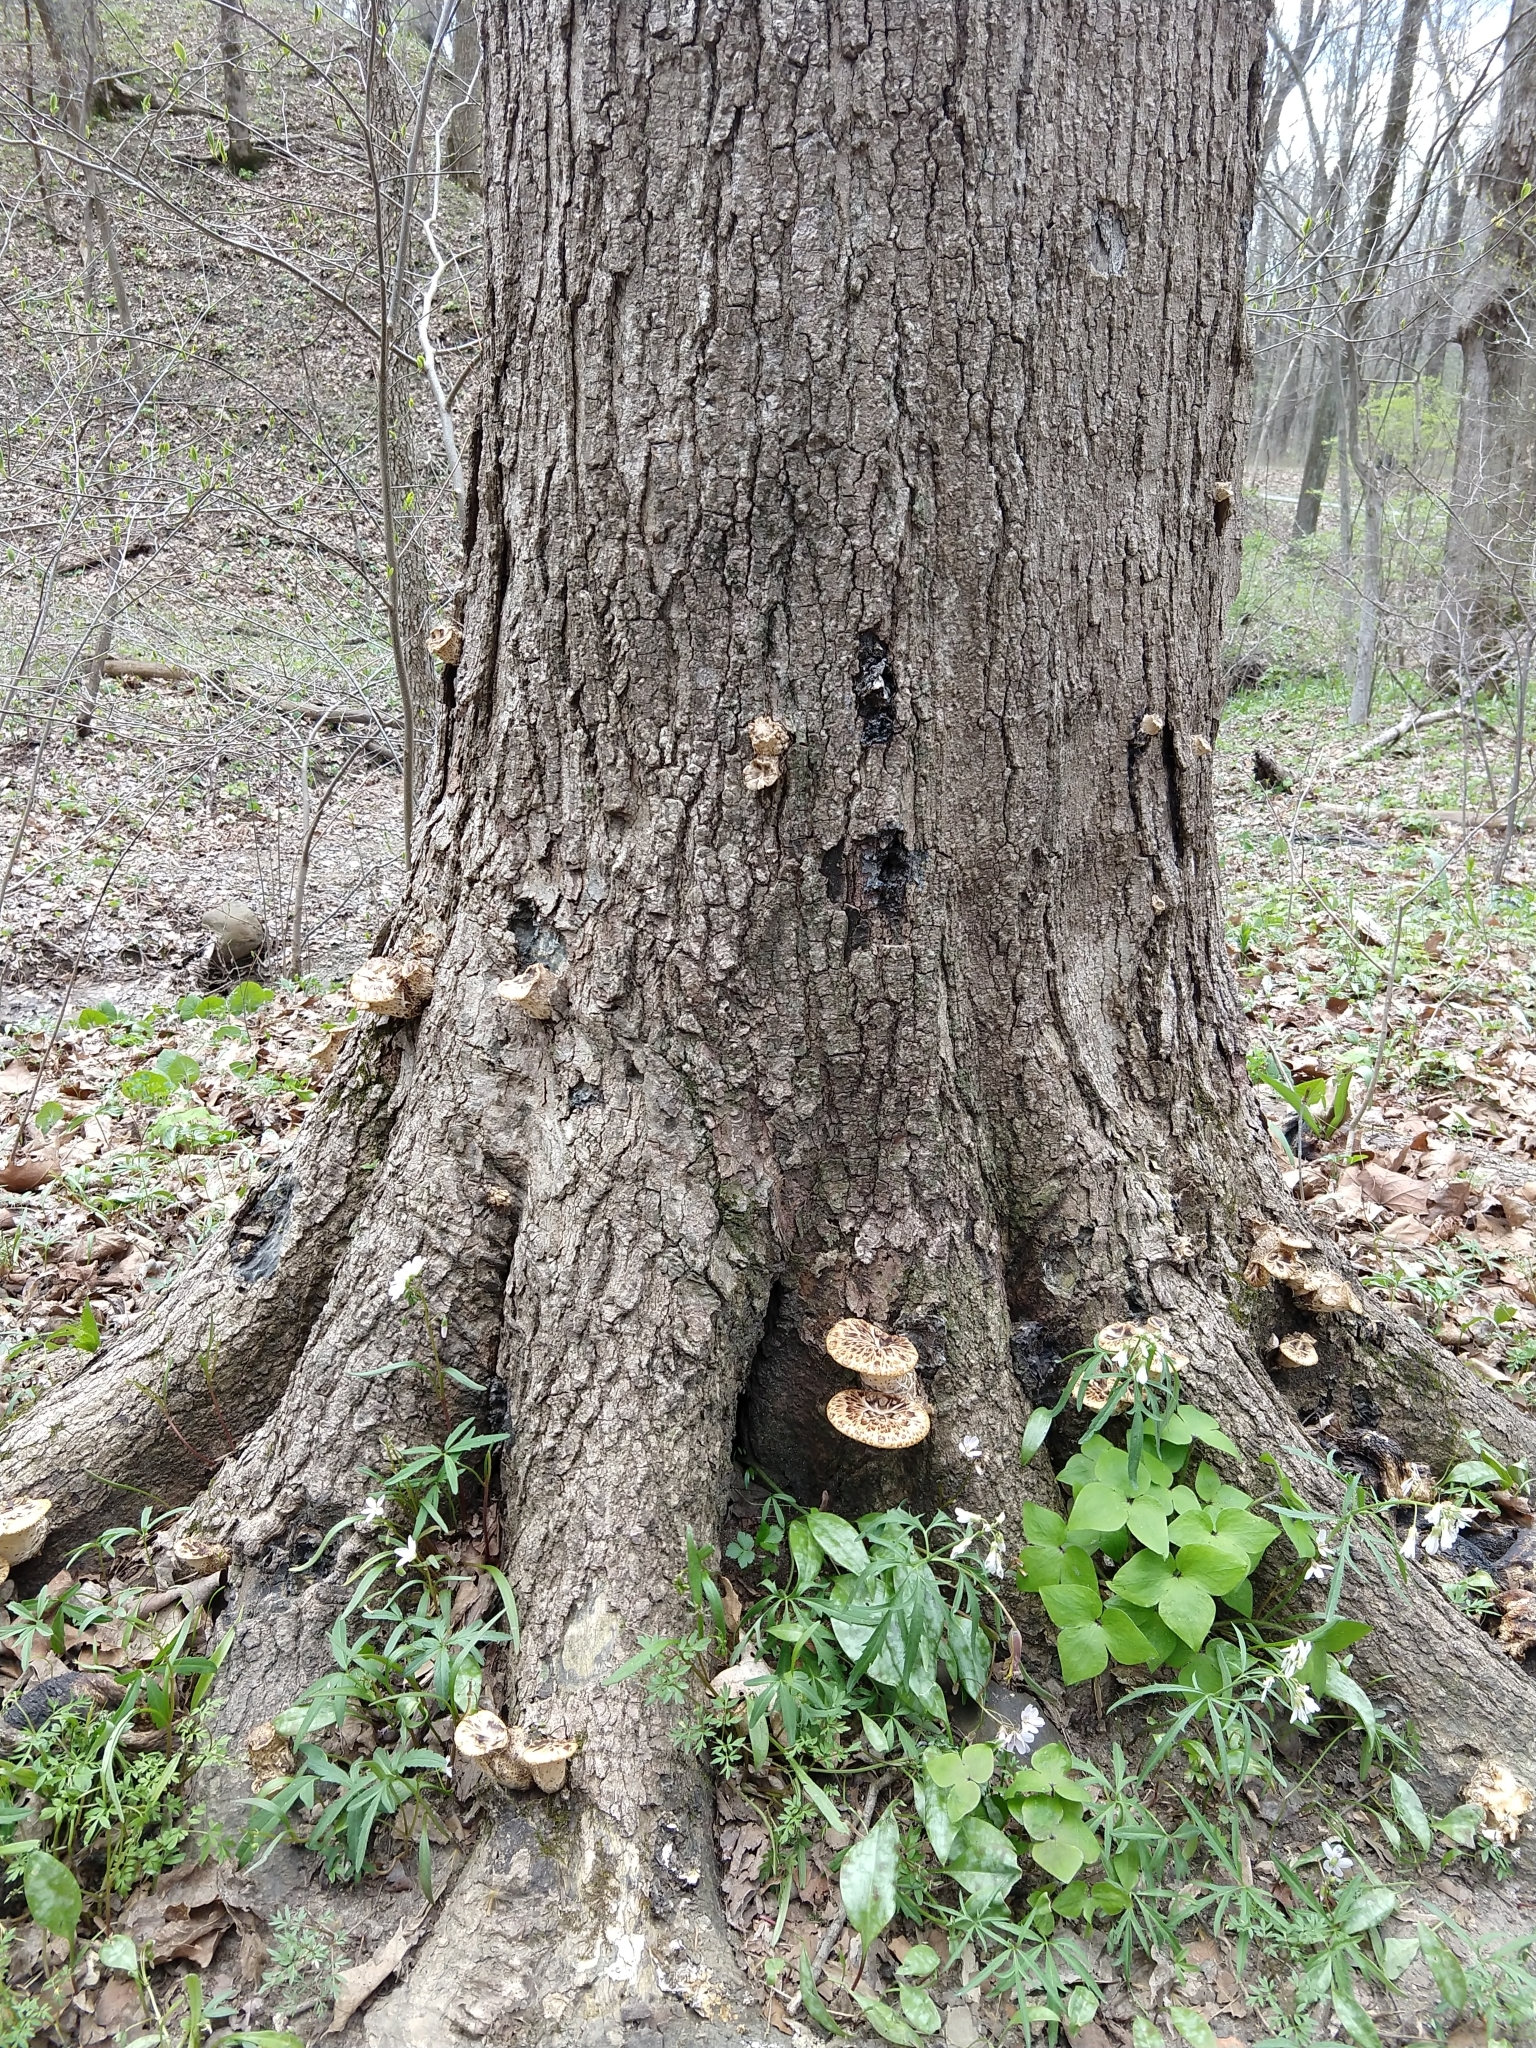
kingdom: Fungi
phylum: Basidiomycota
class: Agaricomycetes
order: Polyporales
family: Polyporaceae
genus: Cerioporus
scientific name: Cerioporus squamosus
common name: Dryad's saddle
